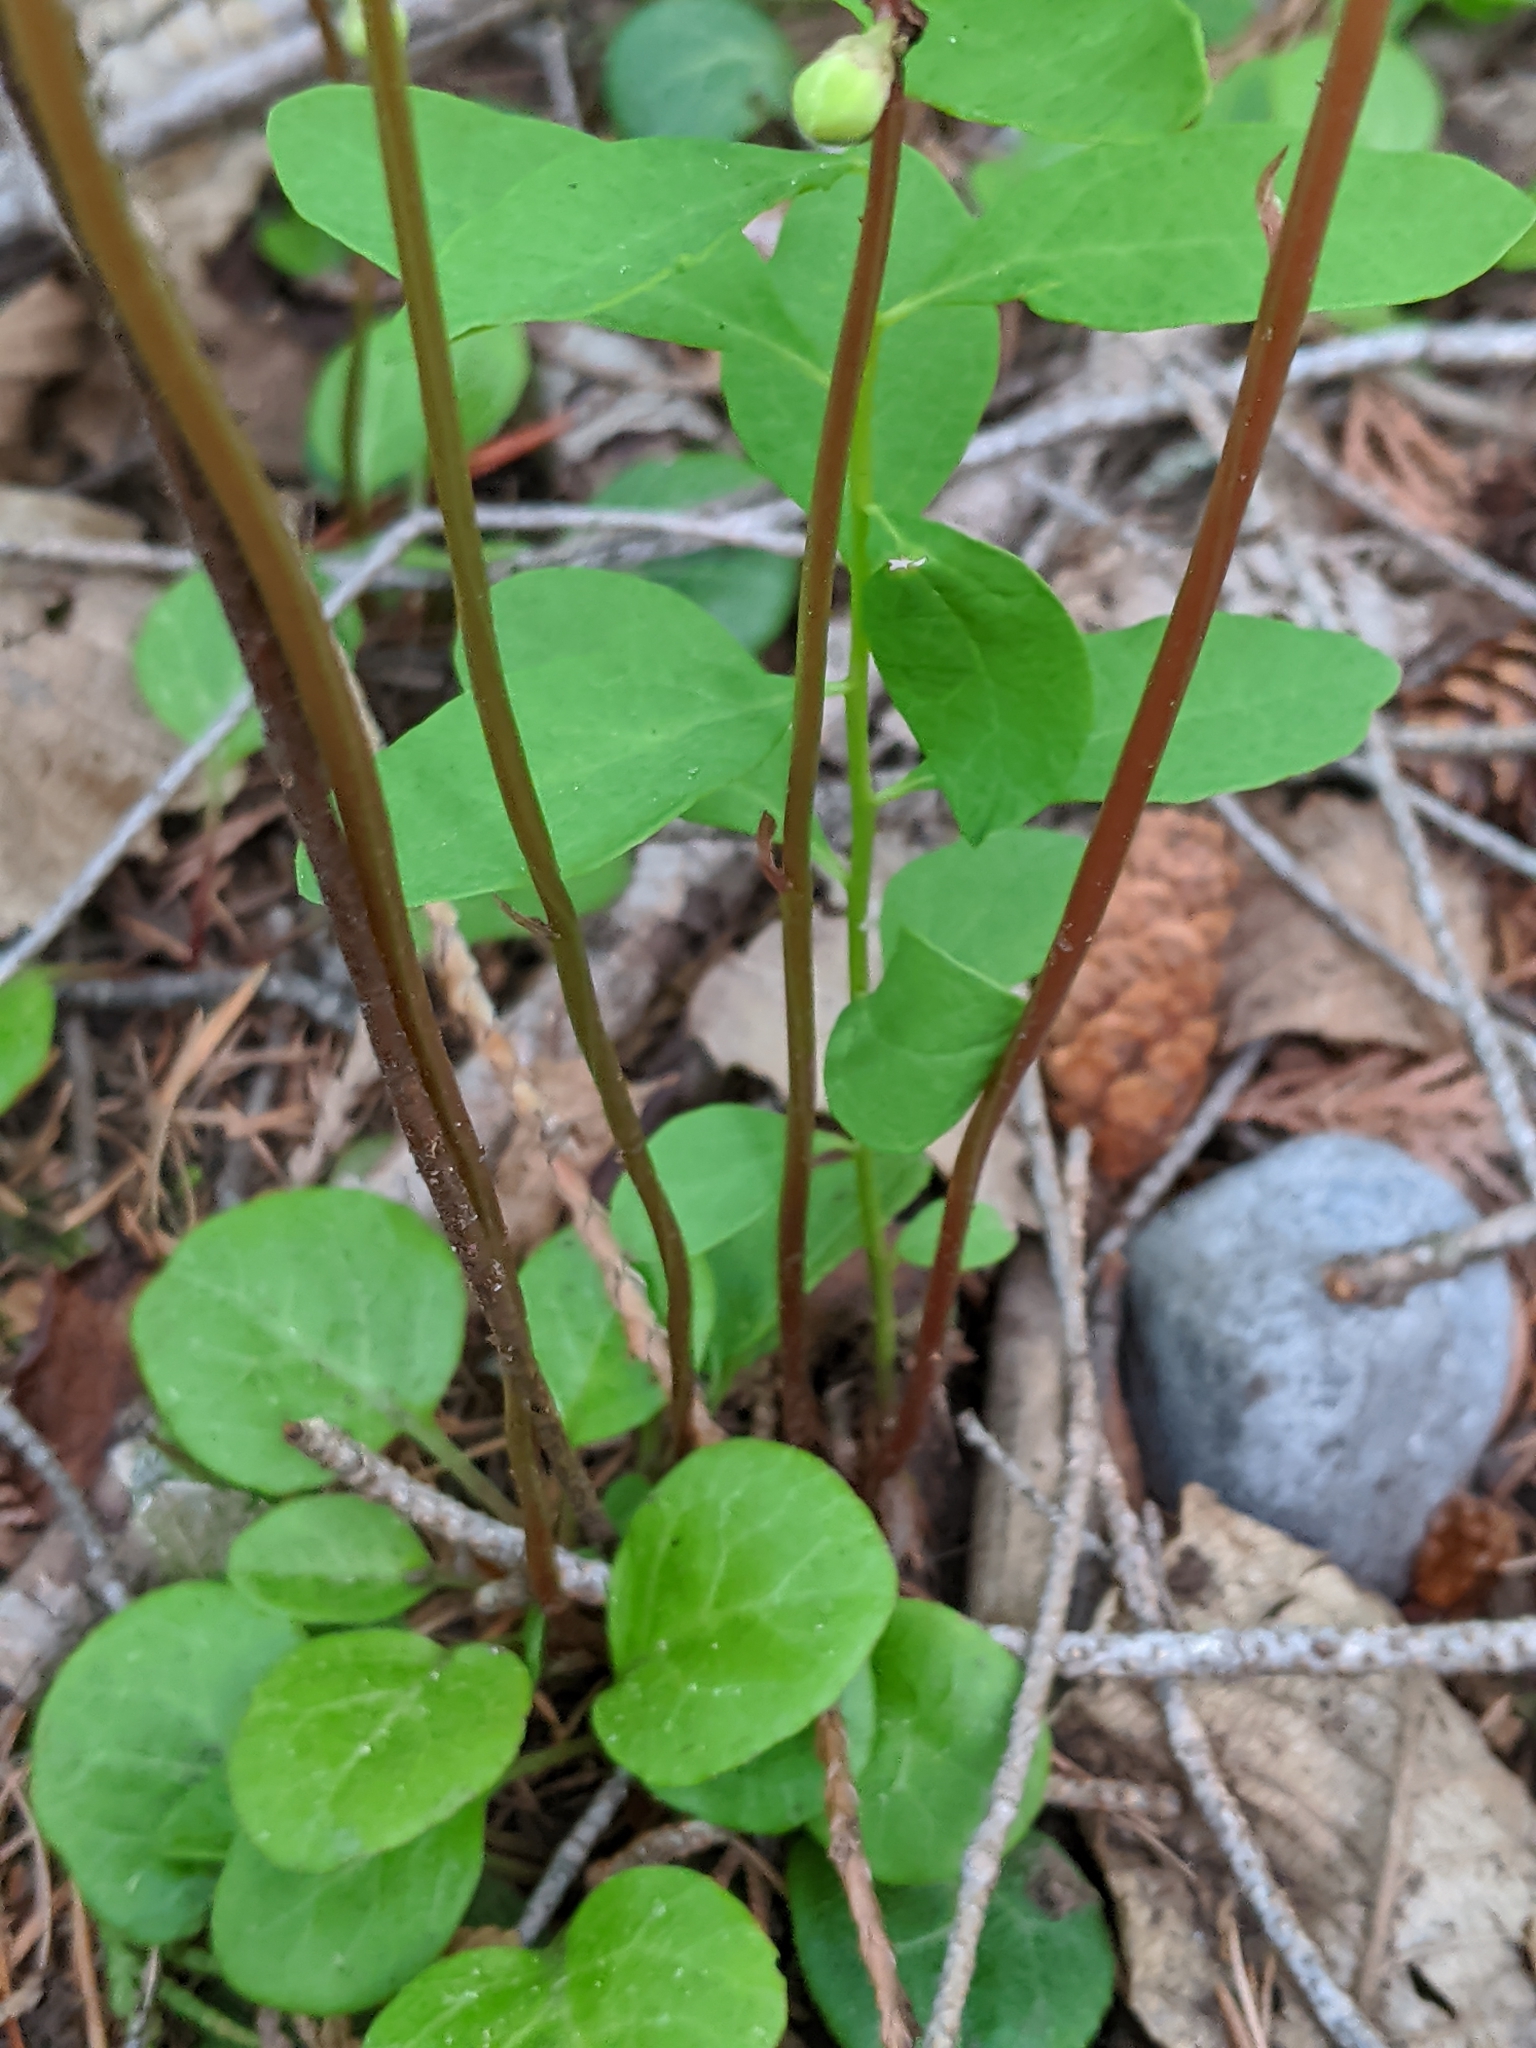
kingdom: Plantae
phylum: Tracheophyta
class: Magnoliopsida
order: Ericales
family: Ericaceae
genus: Pyrola
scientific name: Pyrola chlorantha
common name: Green wintergreen
